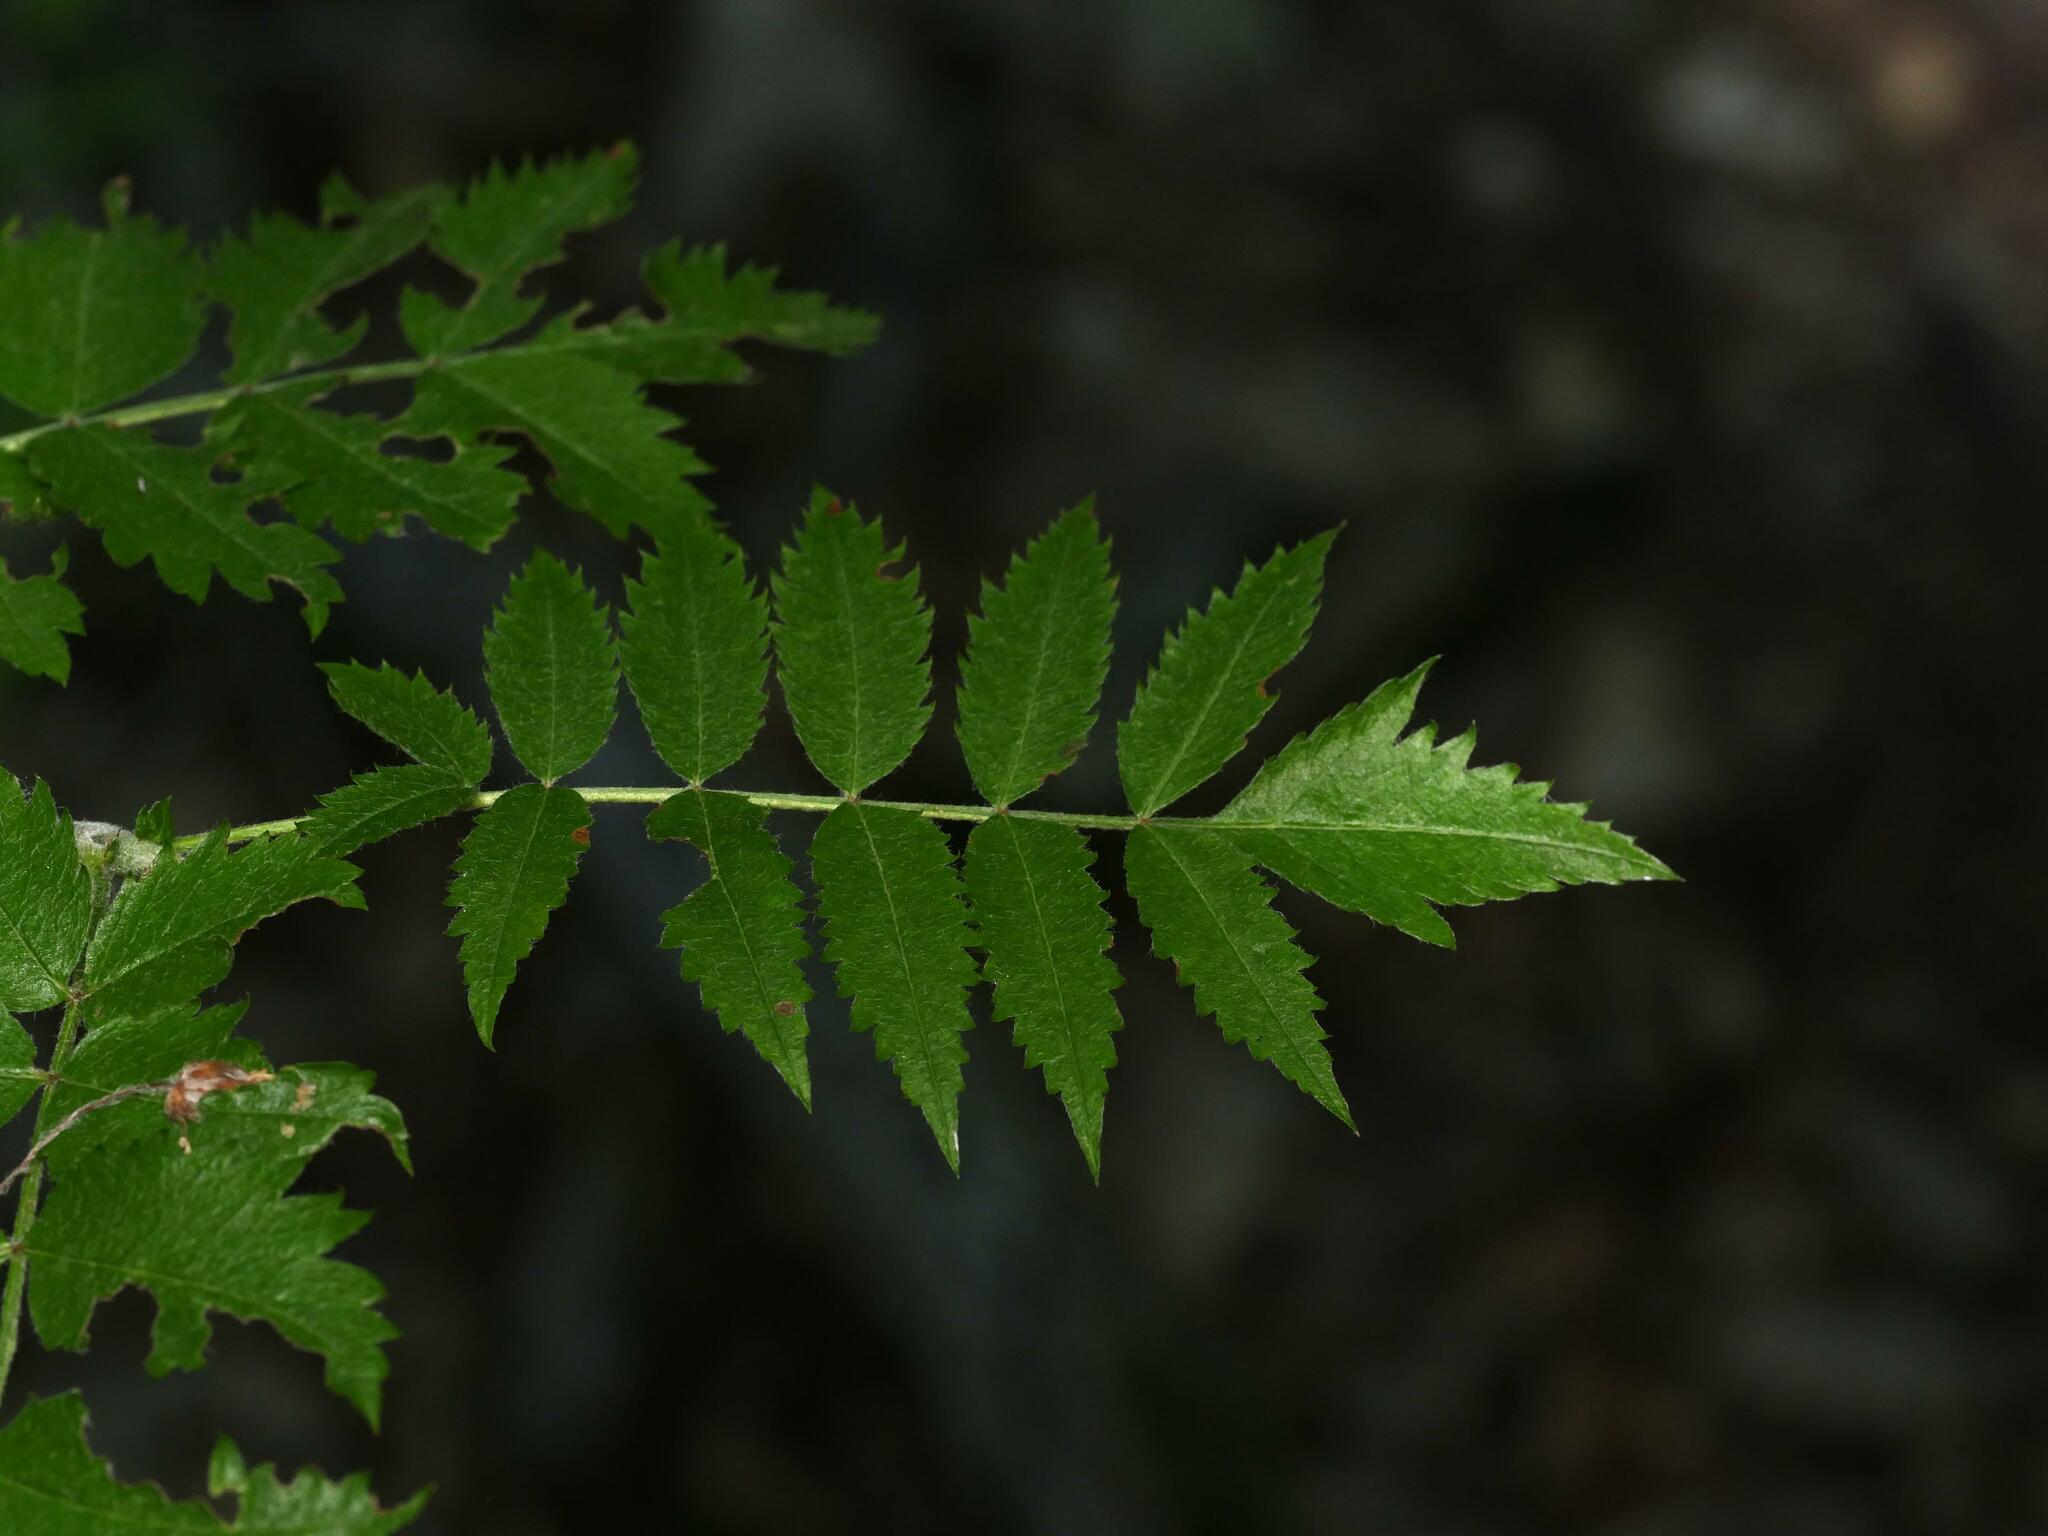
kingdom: Plantae
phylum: Tracheophyta
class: Magnoliopsida
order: Rosales
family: Rosaceae
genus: Sorbus
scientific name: Sorbus aucuparia
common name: Rowan
